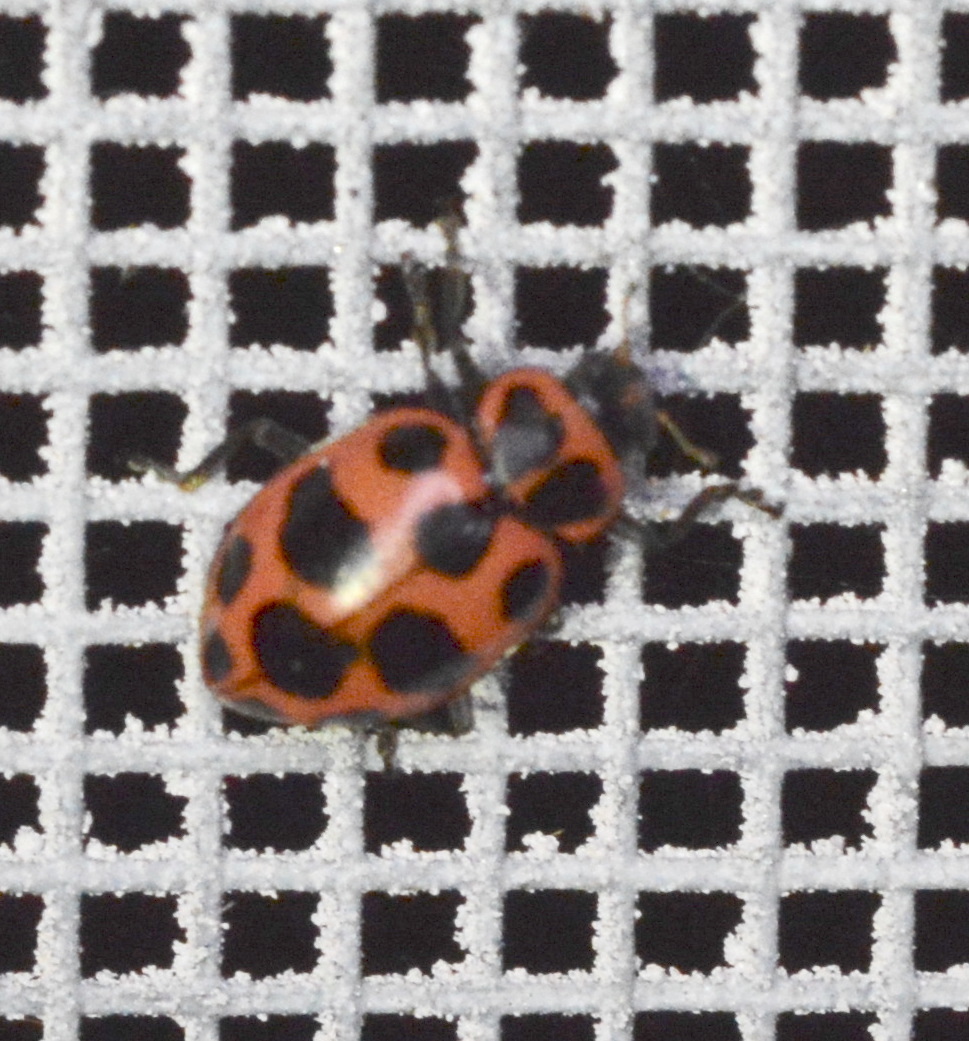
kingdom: Animalia
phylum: Arthropoda
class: Insecta
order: Coleoptera
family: Coccinellidae
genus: Coleomegilla
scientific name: Coleomegilla maculata
